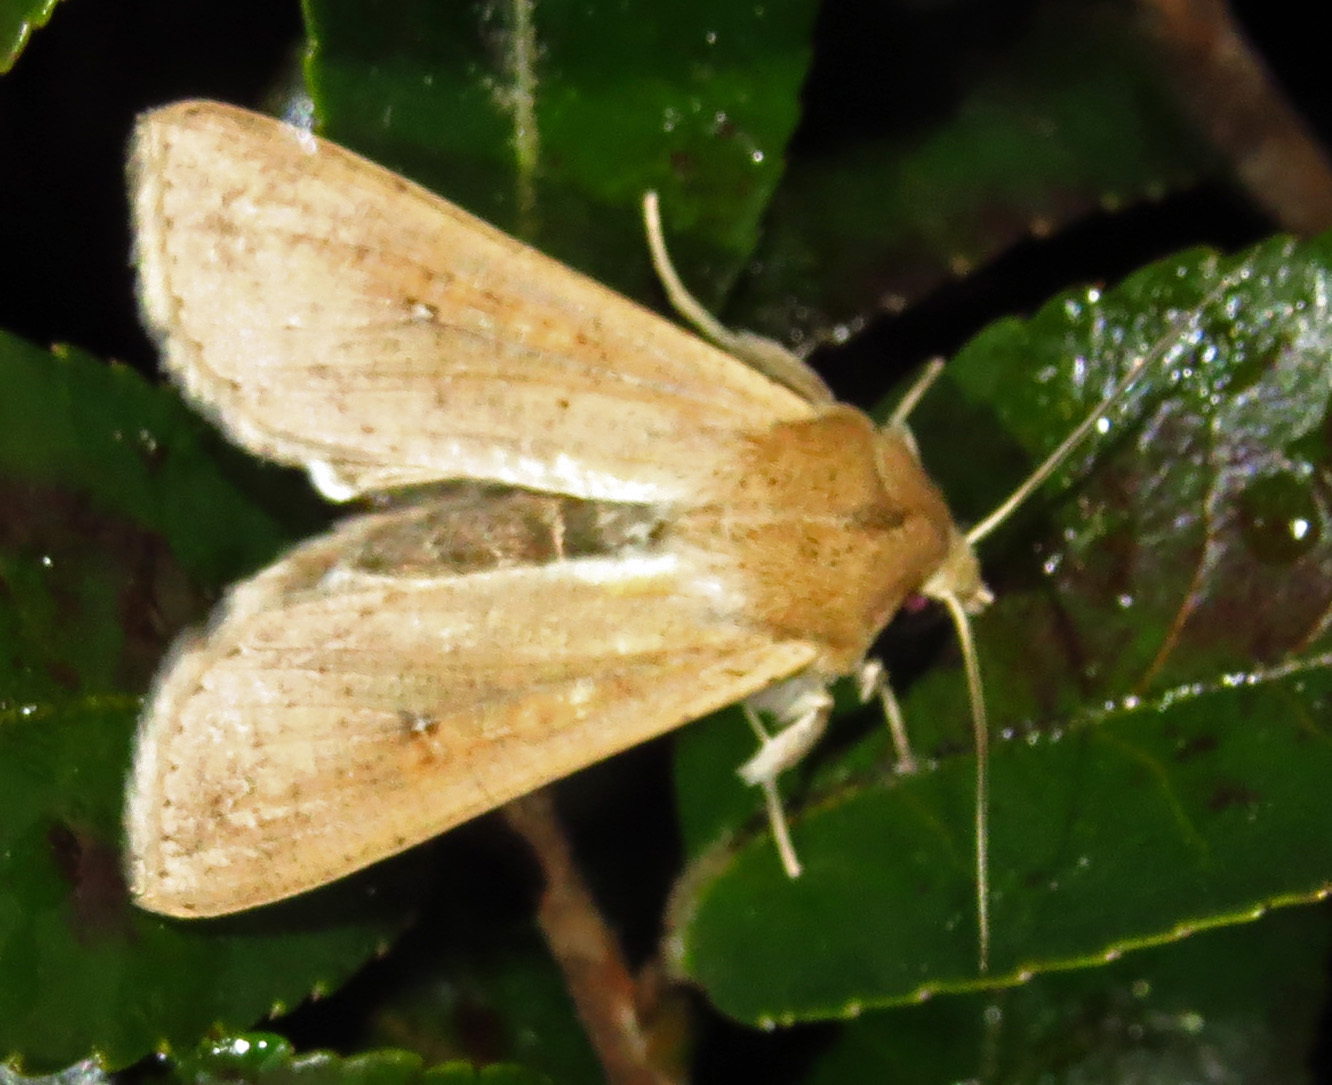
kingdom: Animalia
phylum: Arthropoda
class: Insecta
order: Lepidoptera
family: Noctuidae
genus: Mythimna
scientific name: Mythimna unipuncta
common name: White-speck
